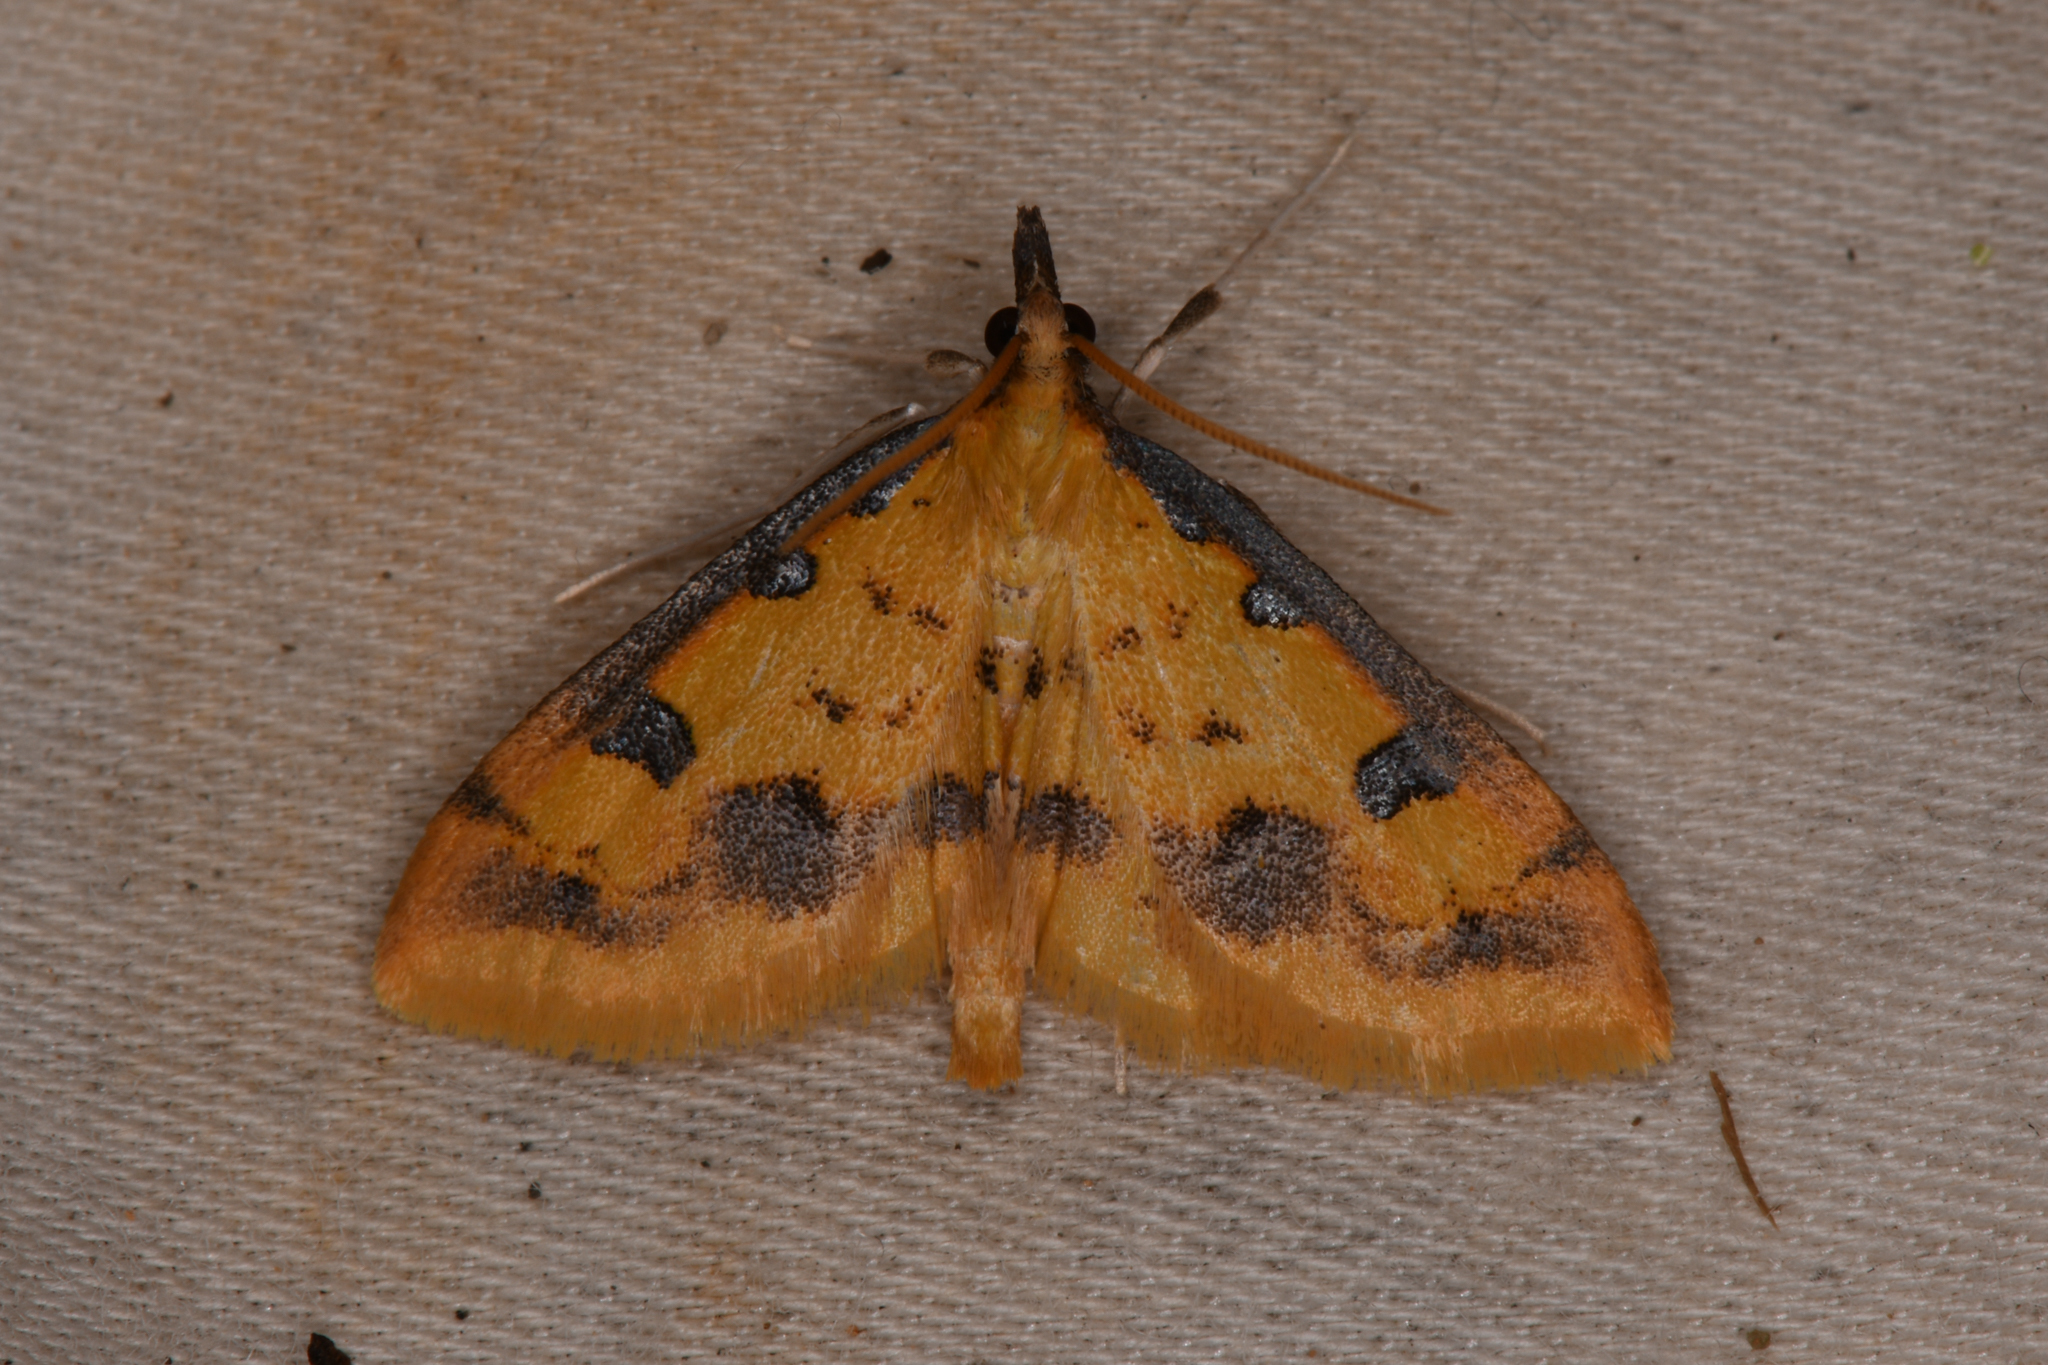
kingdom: Animalia
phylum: Arthropoda
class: Insecta
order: Lepidoptera
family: Crambidae
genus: Choristostigma
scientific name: Choristostigma zephyralis
